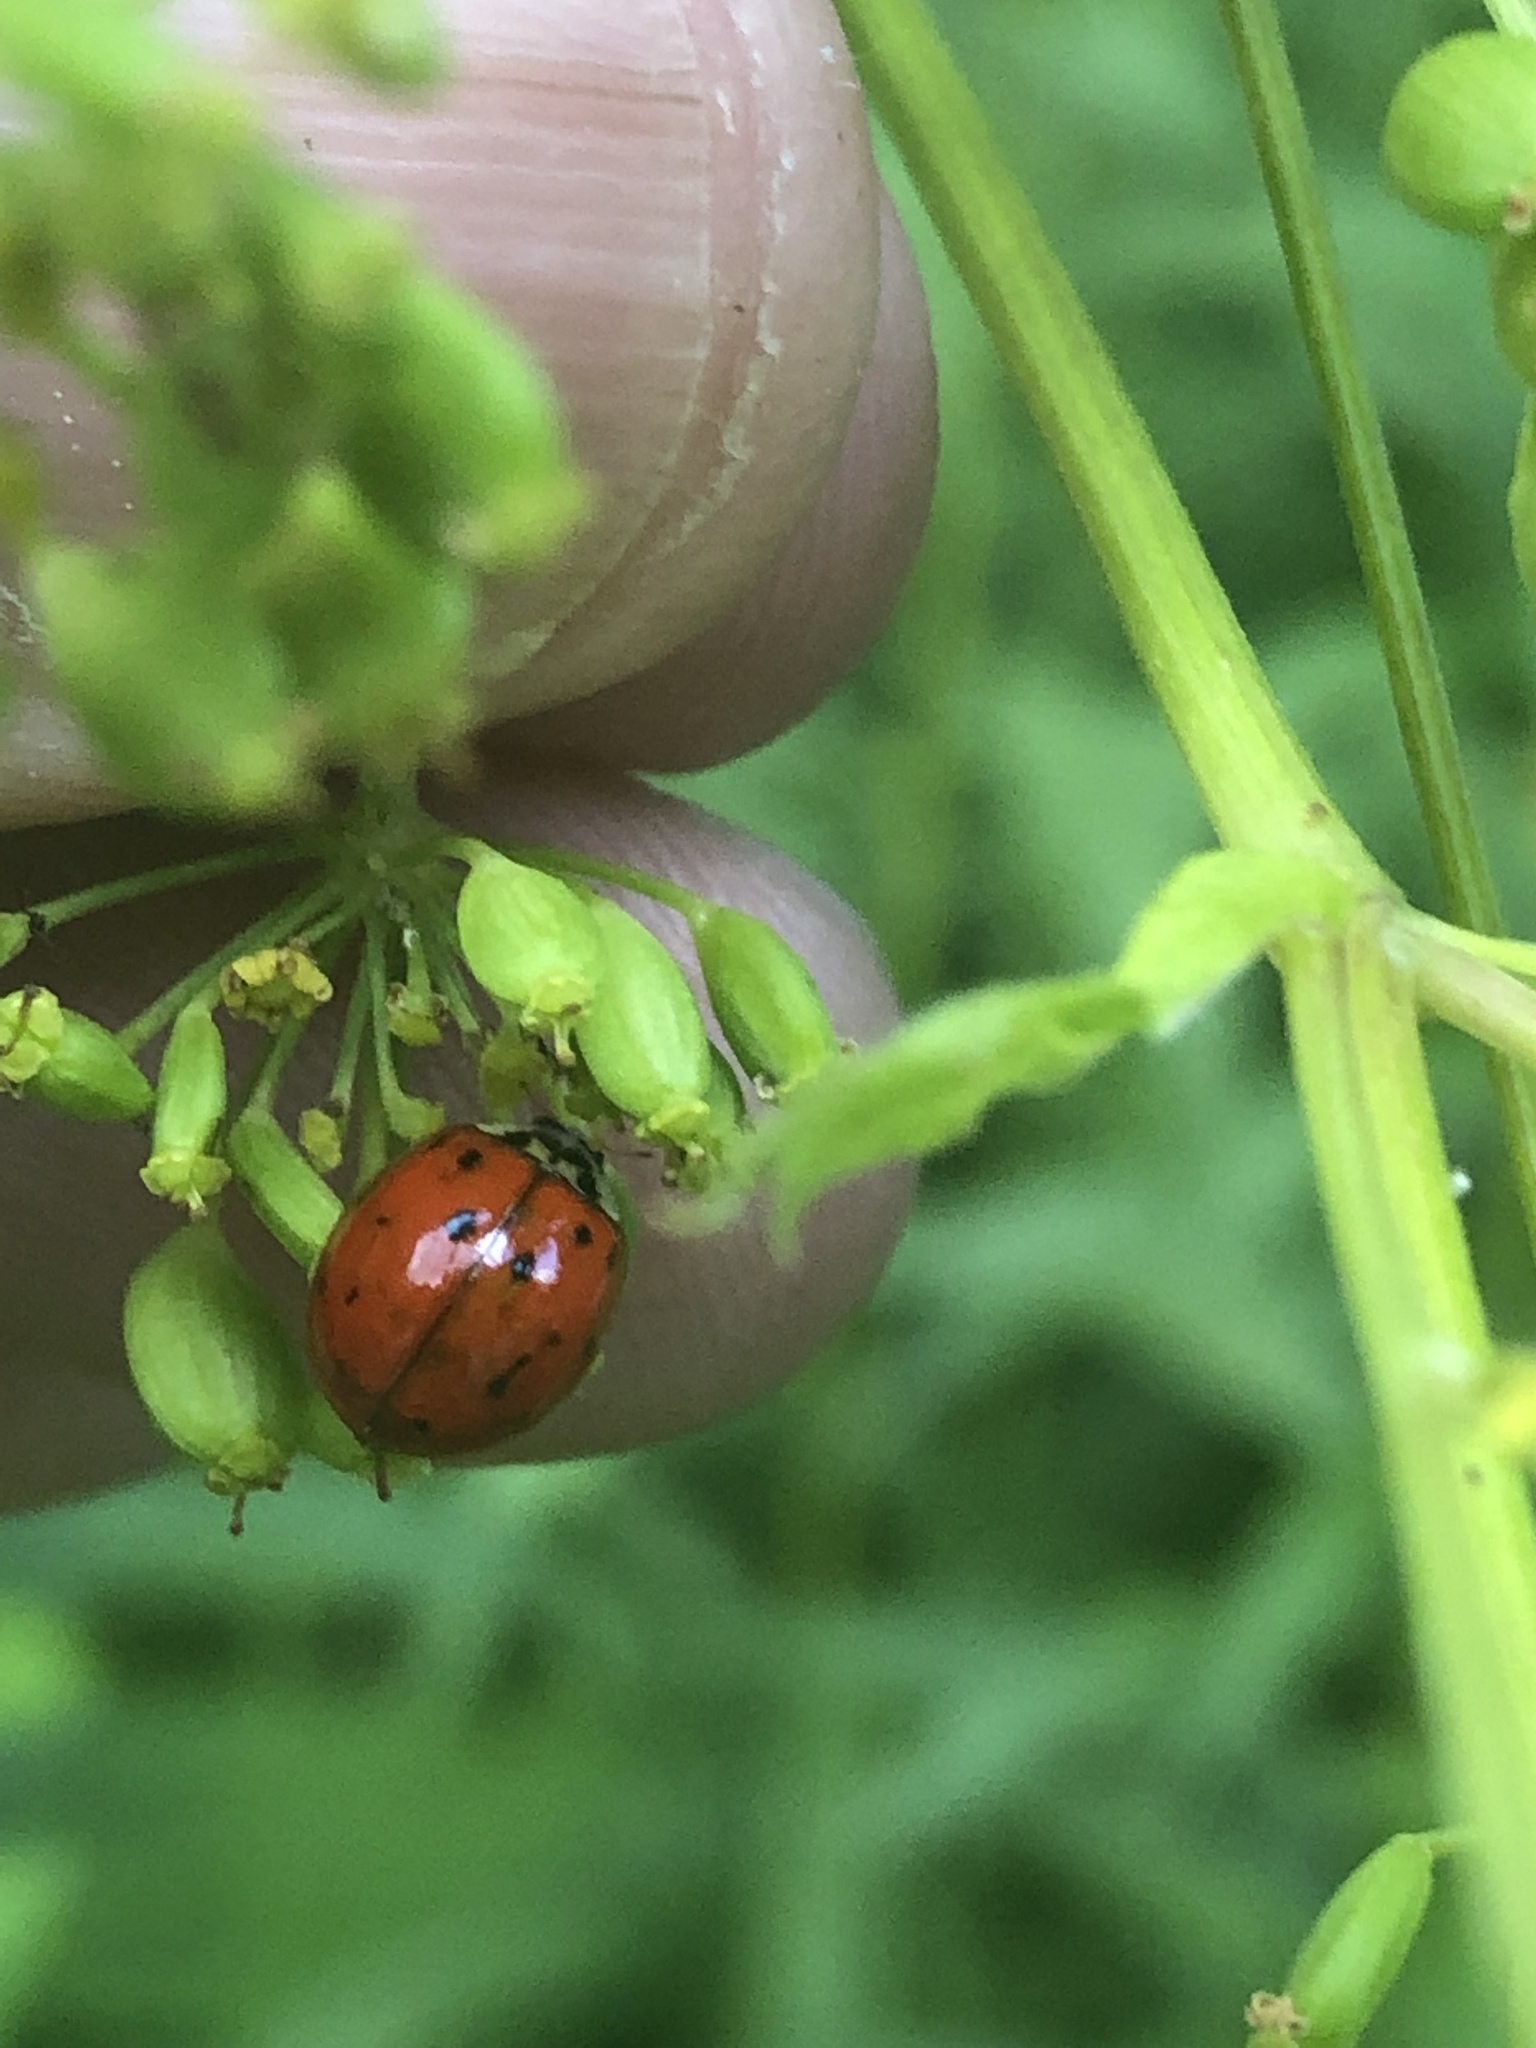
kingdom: Animalia
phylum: Arthropoda
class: Insecta
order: Coleoptera
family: Coccinellidae
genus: Harmonia
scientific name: Harmonia axyridis
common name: Harlequin ladybird
